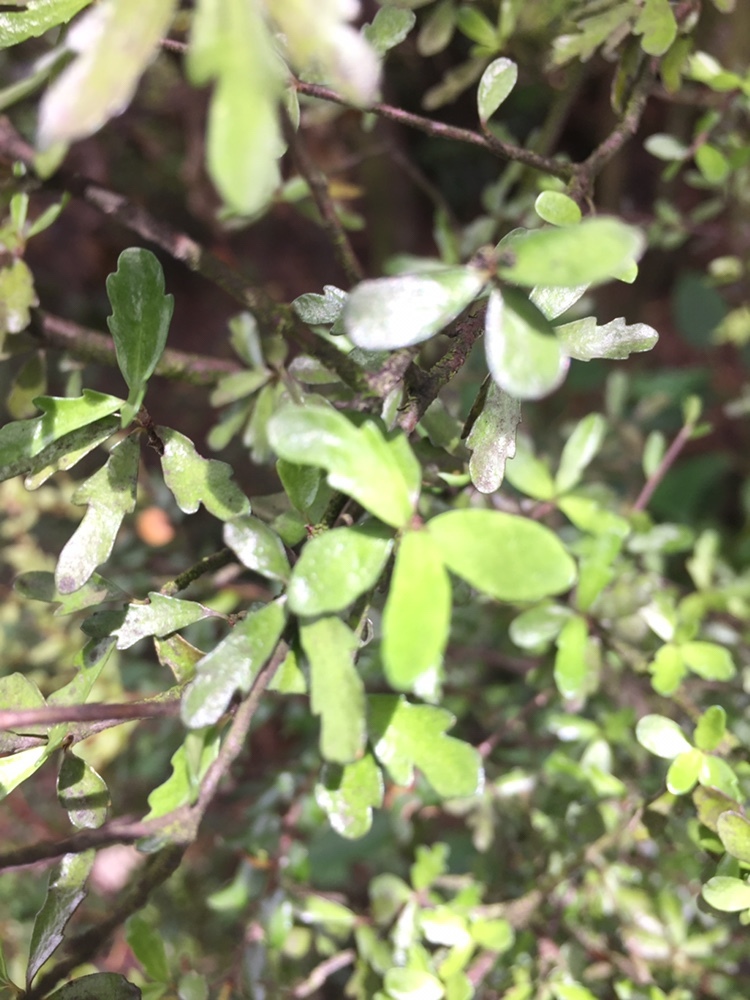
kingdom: Plantae
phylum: Tracheophyta
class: Magnoliopsida
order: Apiales
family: Pittosporaceae
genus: Pittosporum
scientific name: Pittosporum divaricatum
